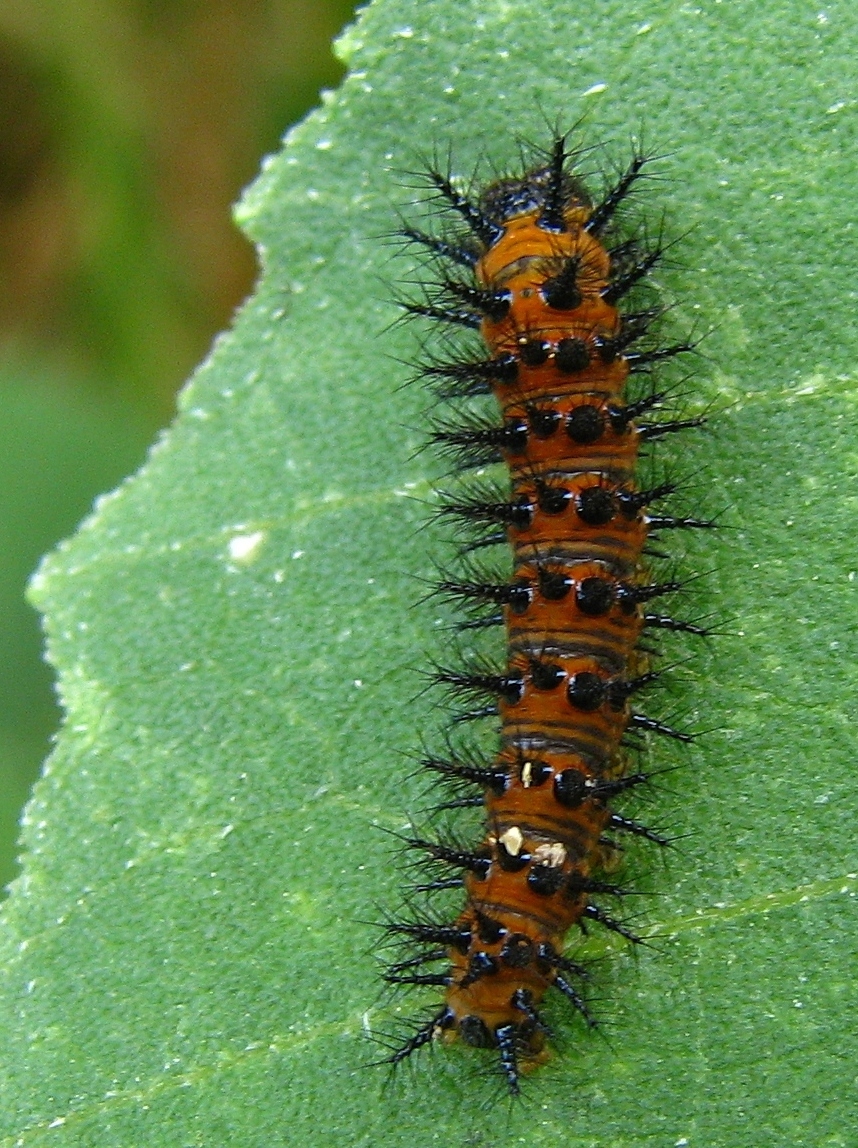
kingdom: Animalia
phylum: Arthropoda
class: Insecta
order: Lepidoptera
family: Nymphalidae
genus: Chlosyne
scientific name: Chlosyne lacinia
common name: Bordered patch
